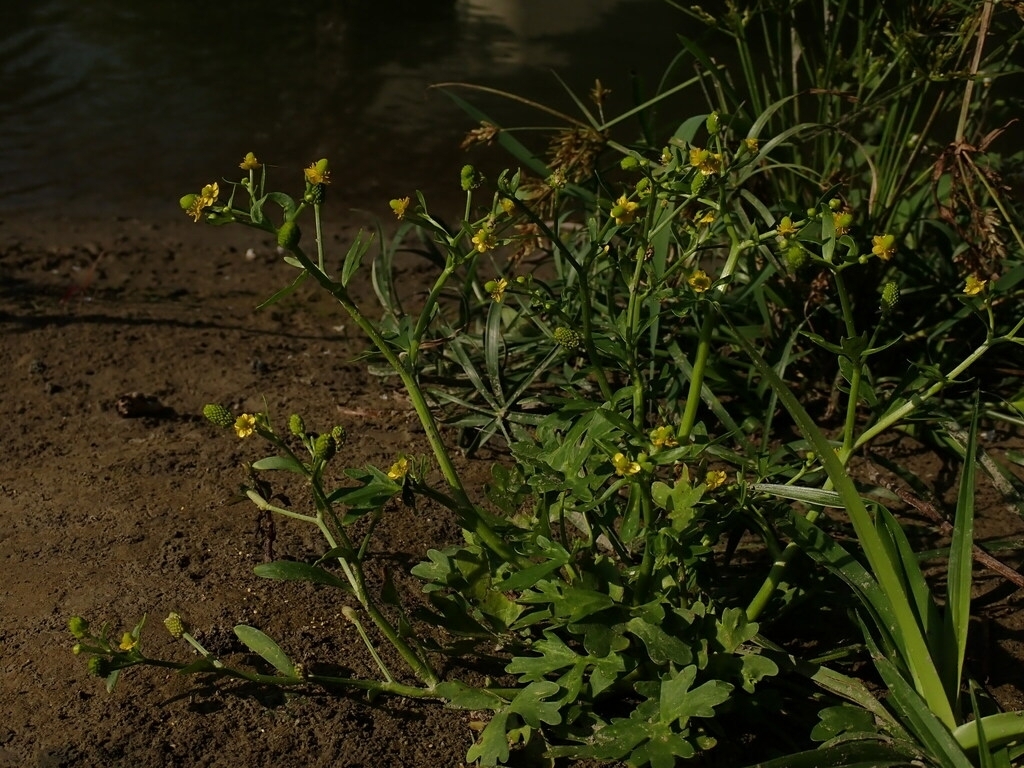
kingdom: Plantae
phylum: Tracheophyta
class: Magnoliopsida
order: Ranunculales
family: Ranunculaceae
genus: Ranunculus
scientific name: Ranunculus sceleratus
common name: Celery-leaved buttercup
